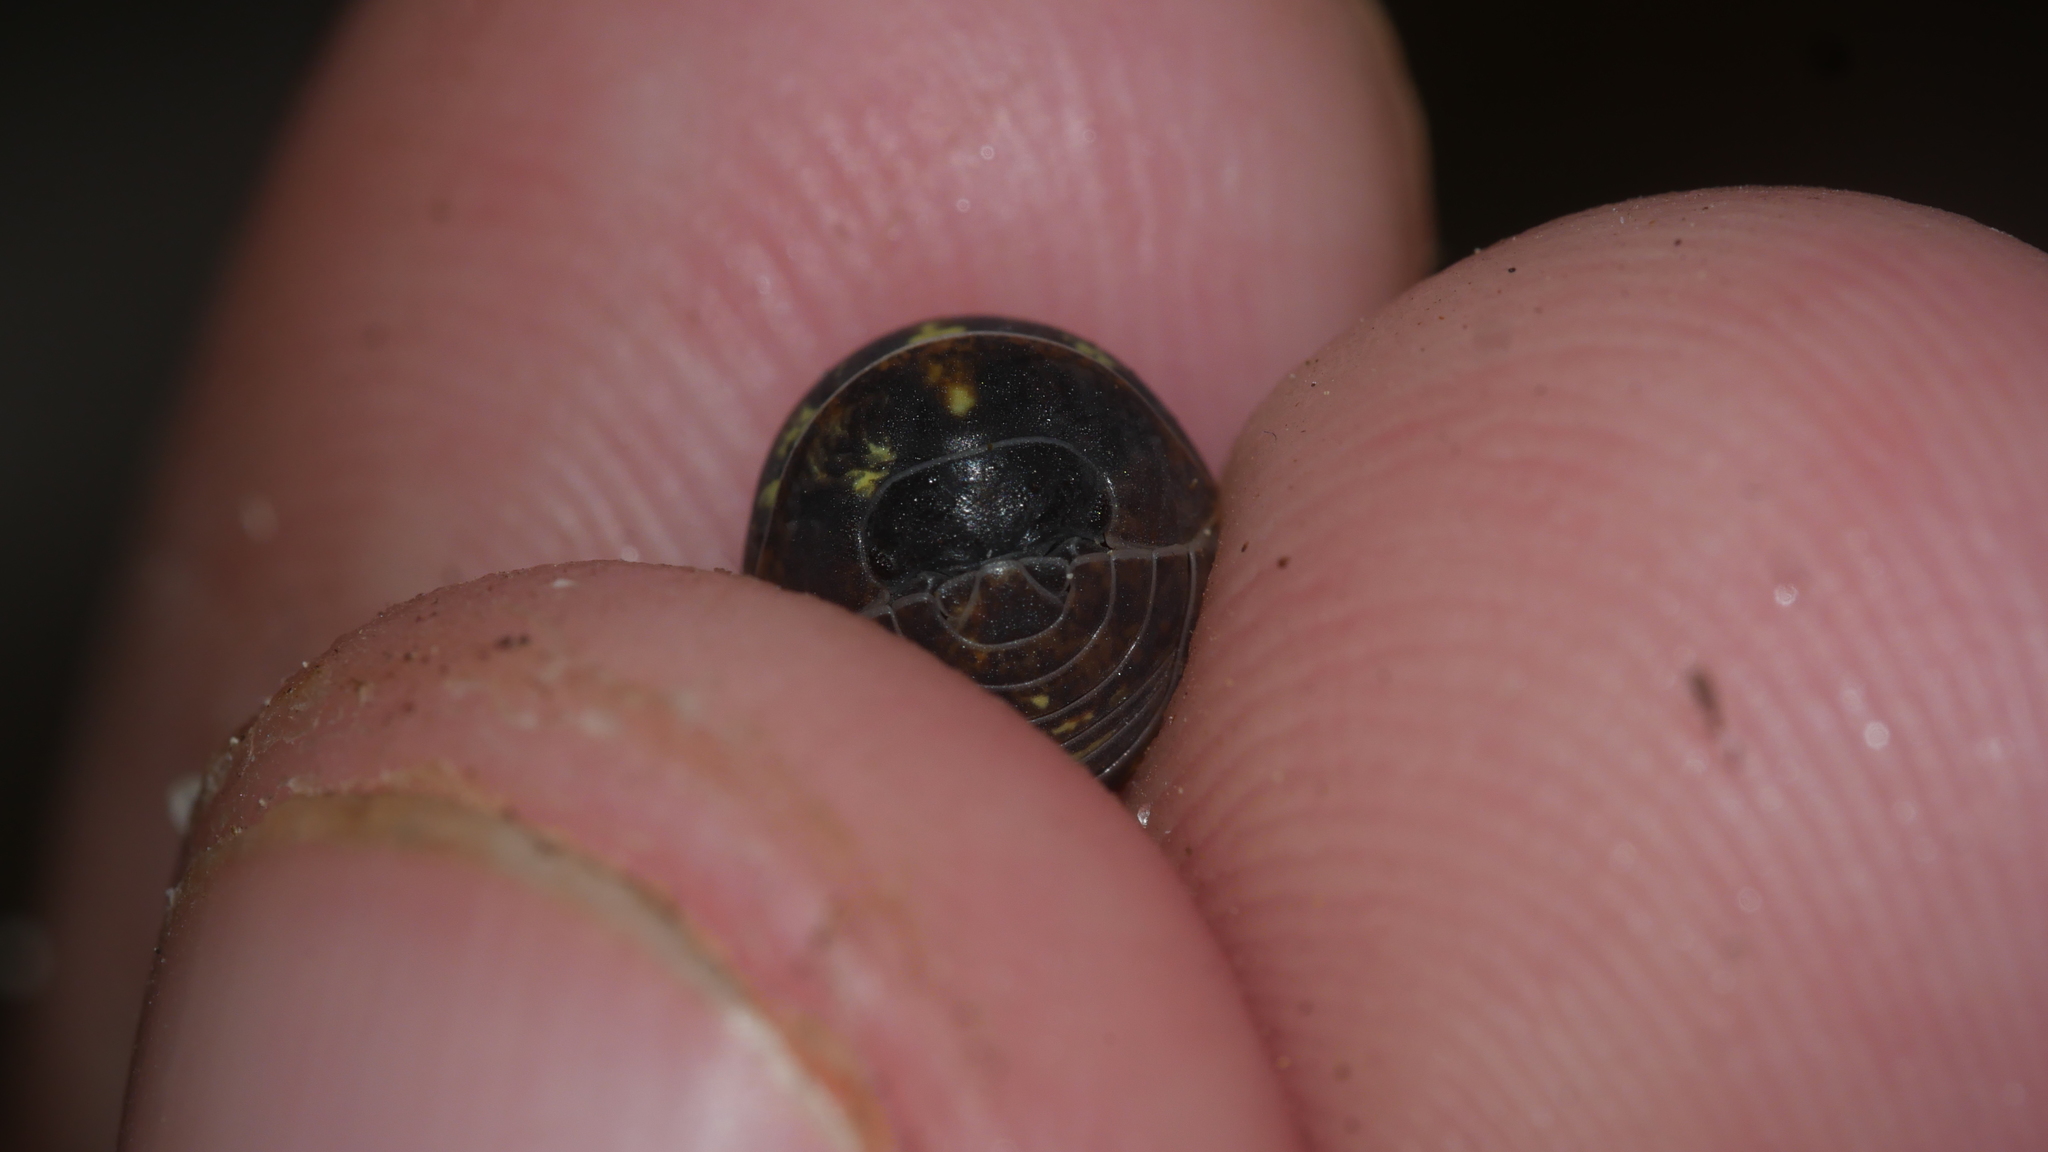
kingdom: Animalia
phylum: Arthropoda
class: Malacostraca
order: Isopoda
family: Armadillidiidae
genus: Armadillidium
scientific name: Armadillidium vulgare
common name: Common pill woodlouse
